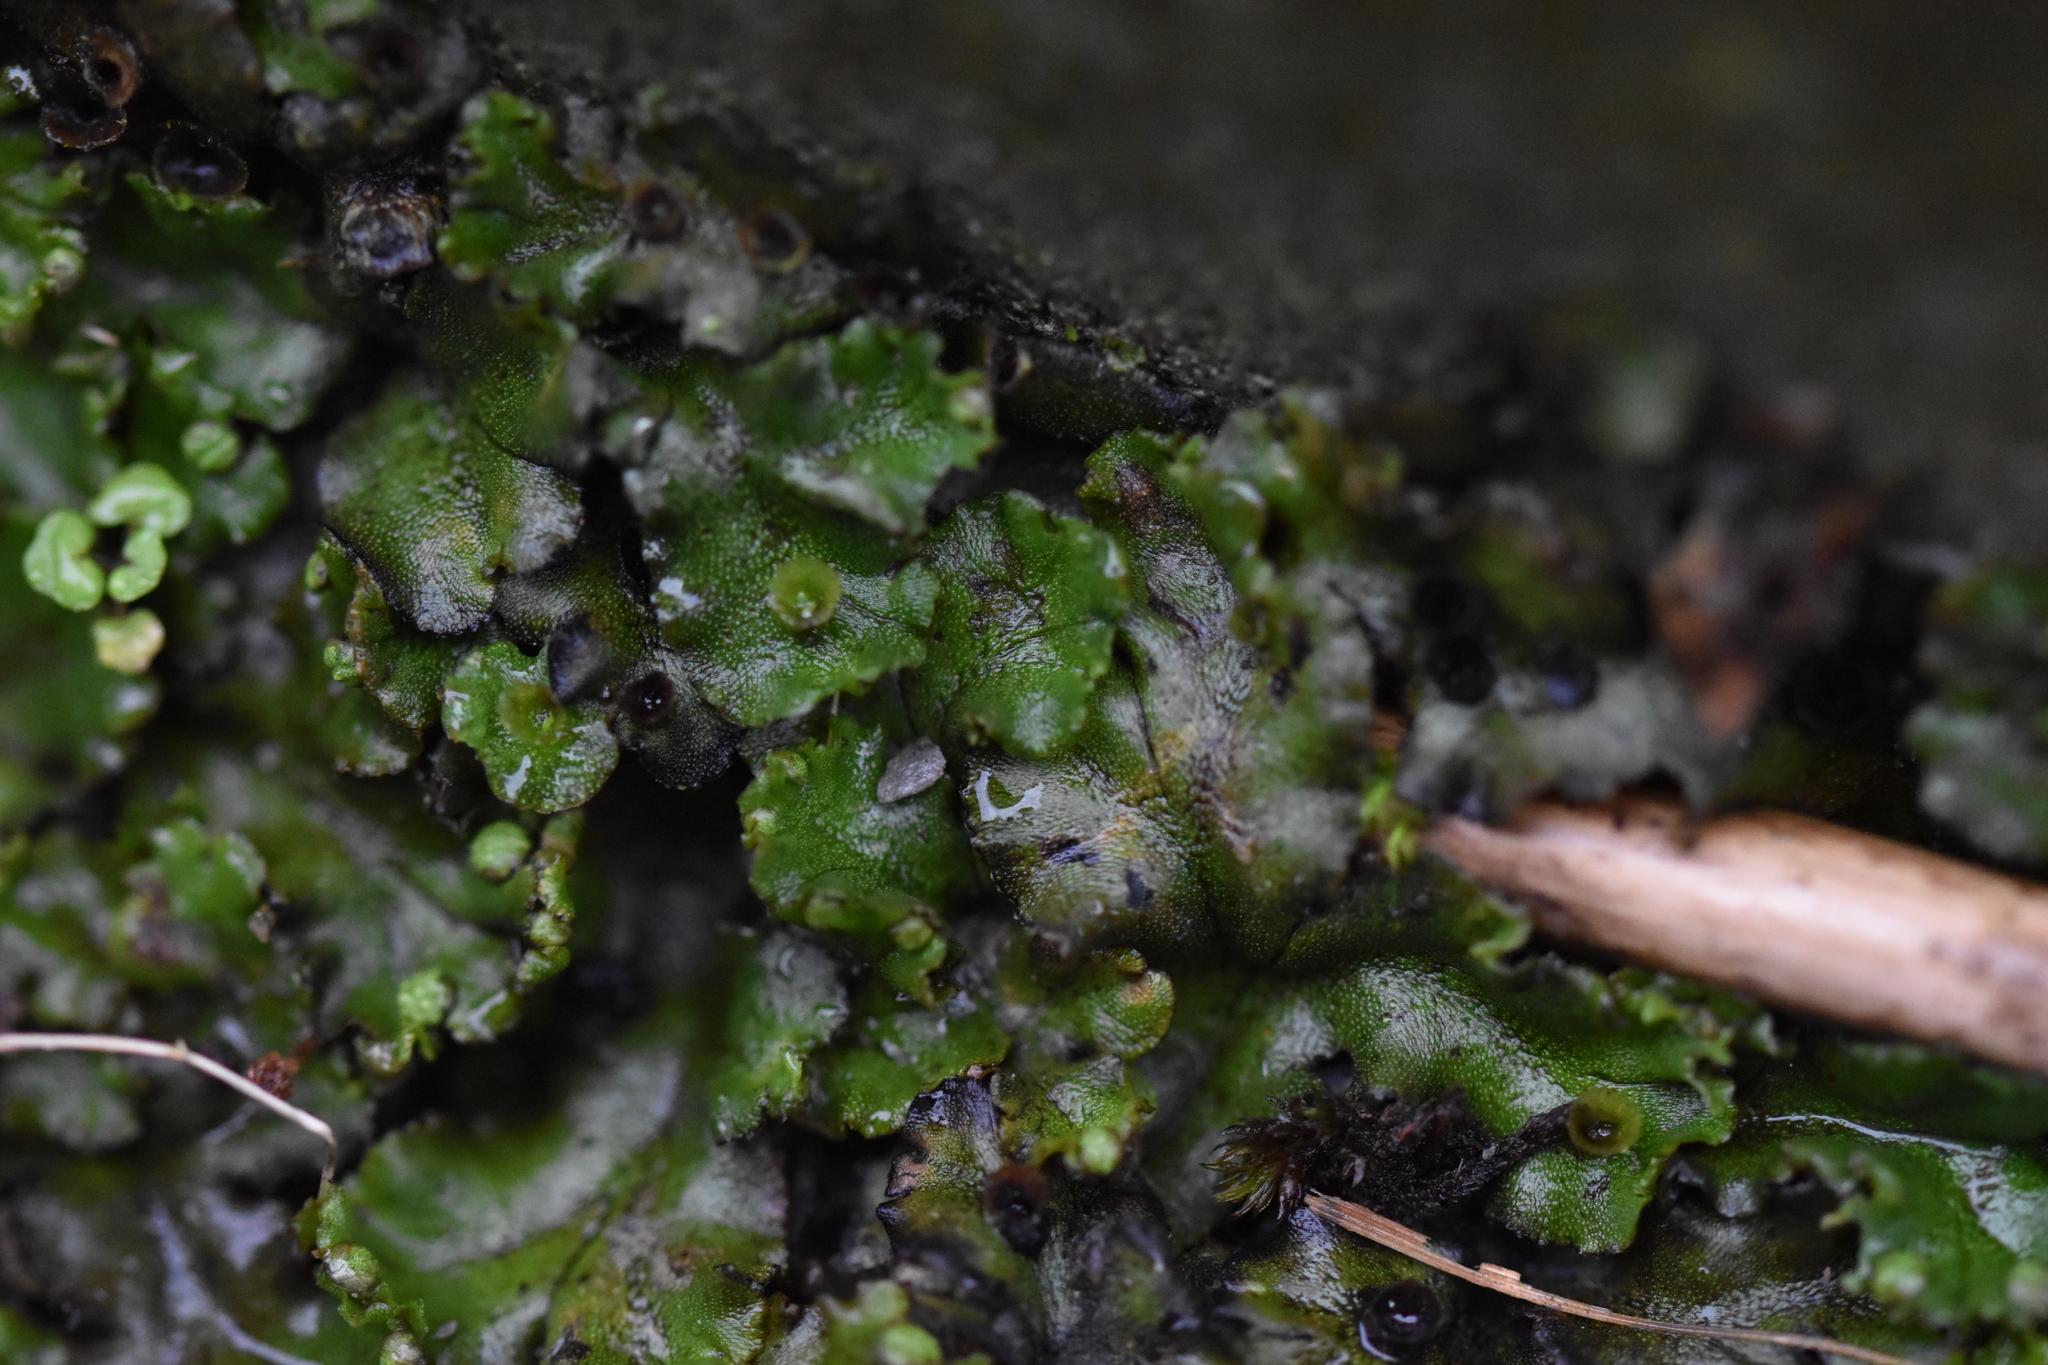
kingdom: Plantae
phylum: Marchantiophyta
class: Marchantiopsida
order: Marchantiales
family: Marchantiaceae
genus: Marchantia
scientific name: Marchantia polymorpha
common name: Common liverwort
